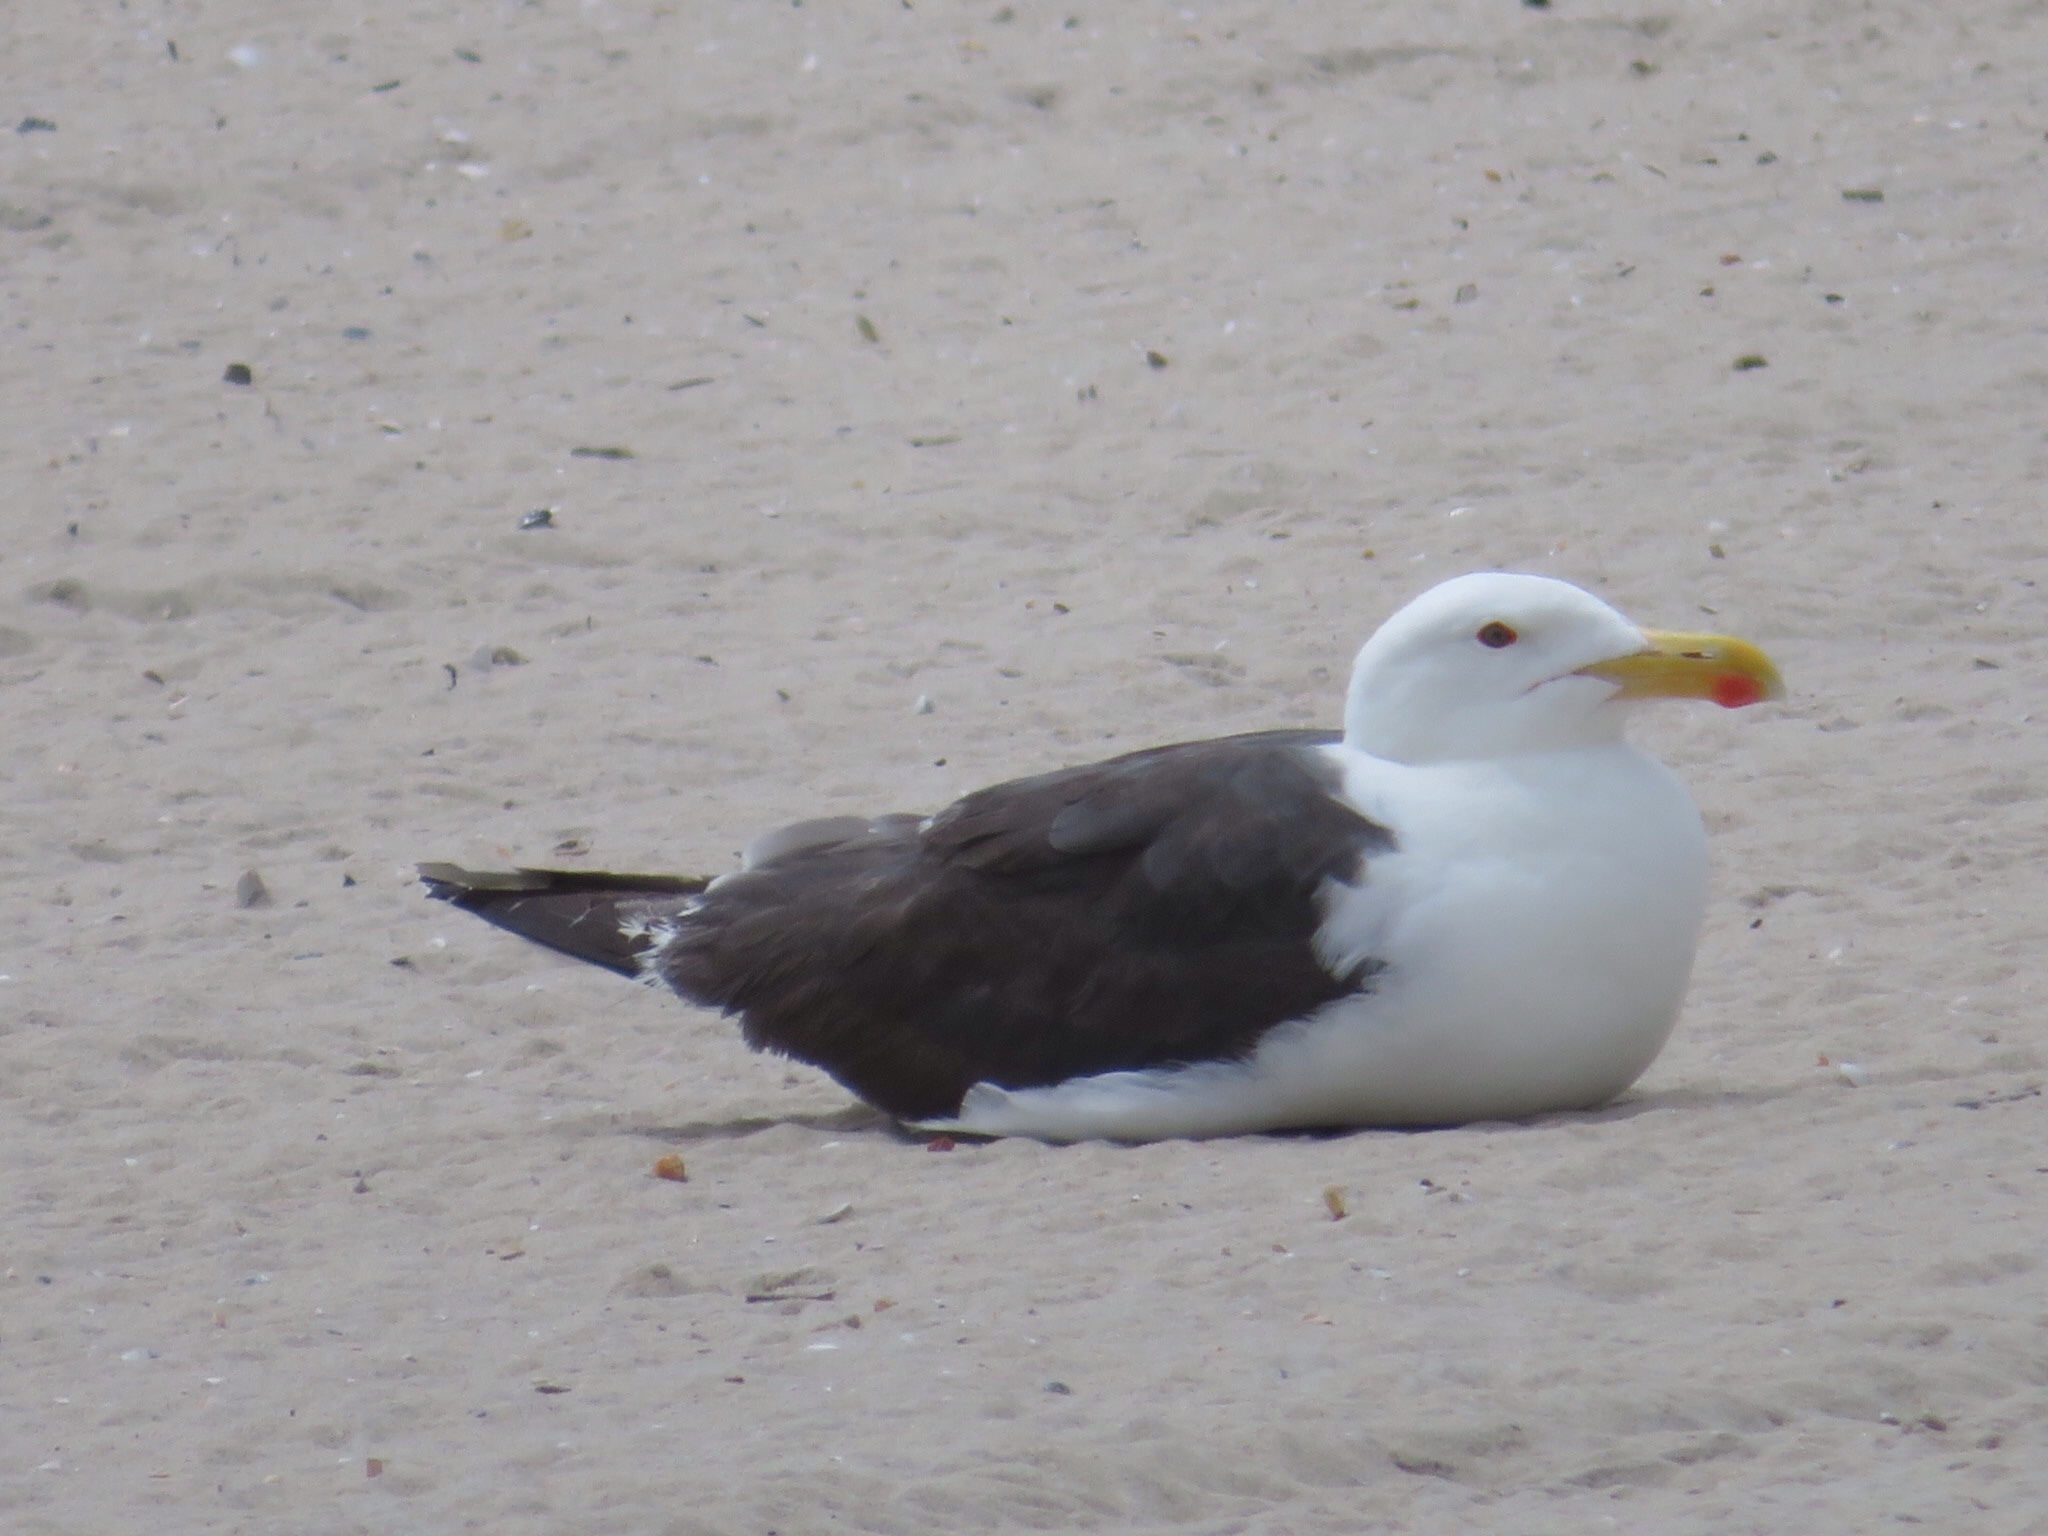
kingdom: Animalia
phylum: Chordata
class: Aves
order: Charadriiformes
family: Laridae
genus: Larus
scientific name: Larus marinus
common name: Great black-backed gull
